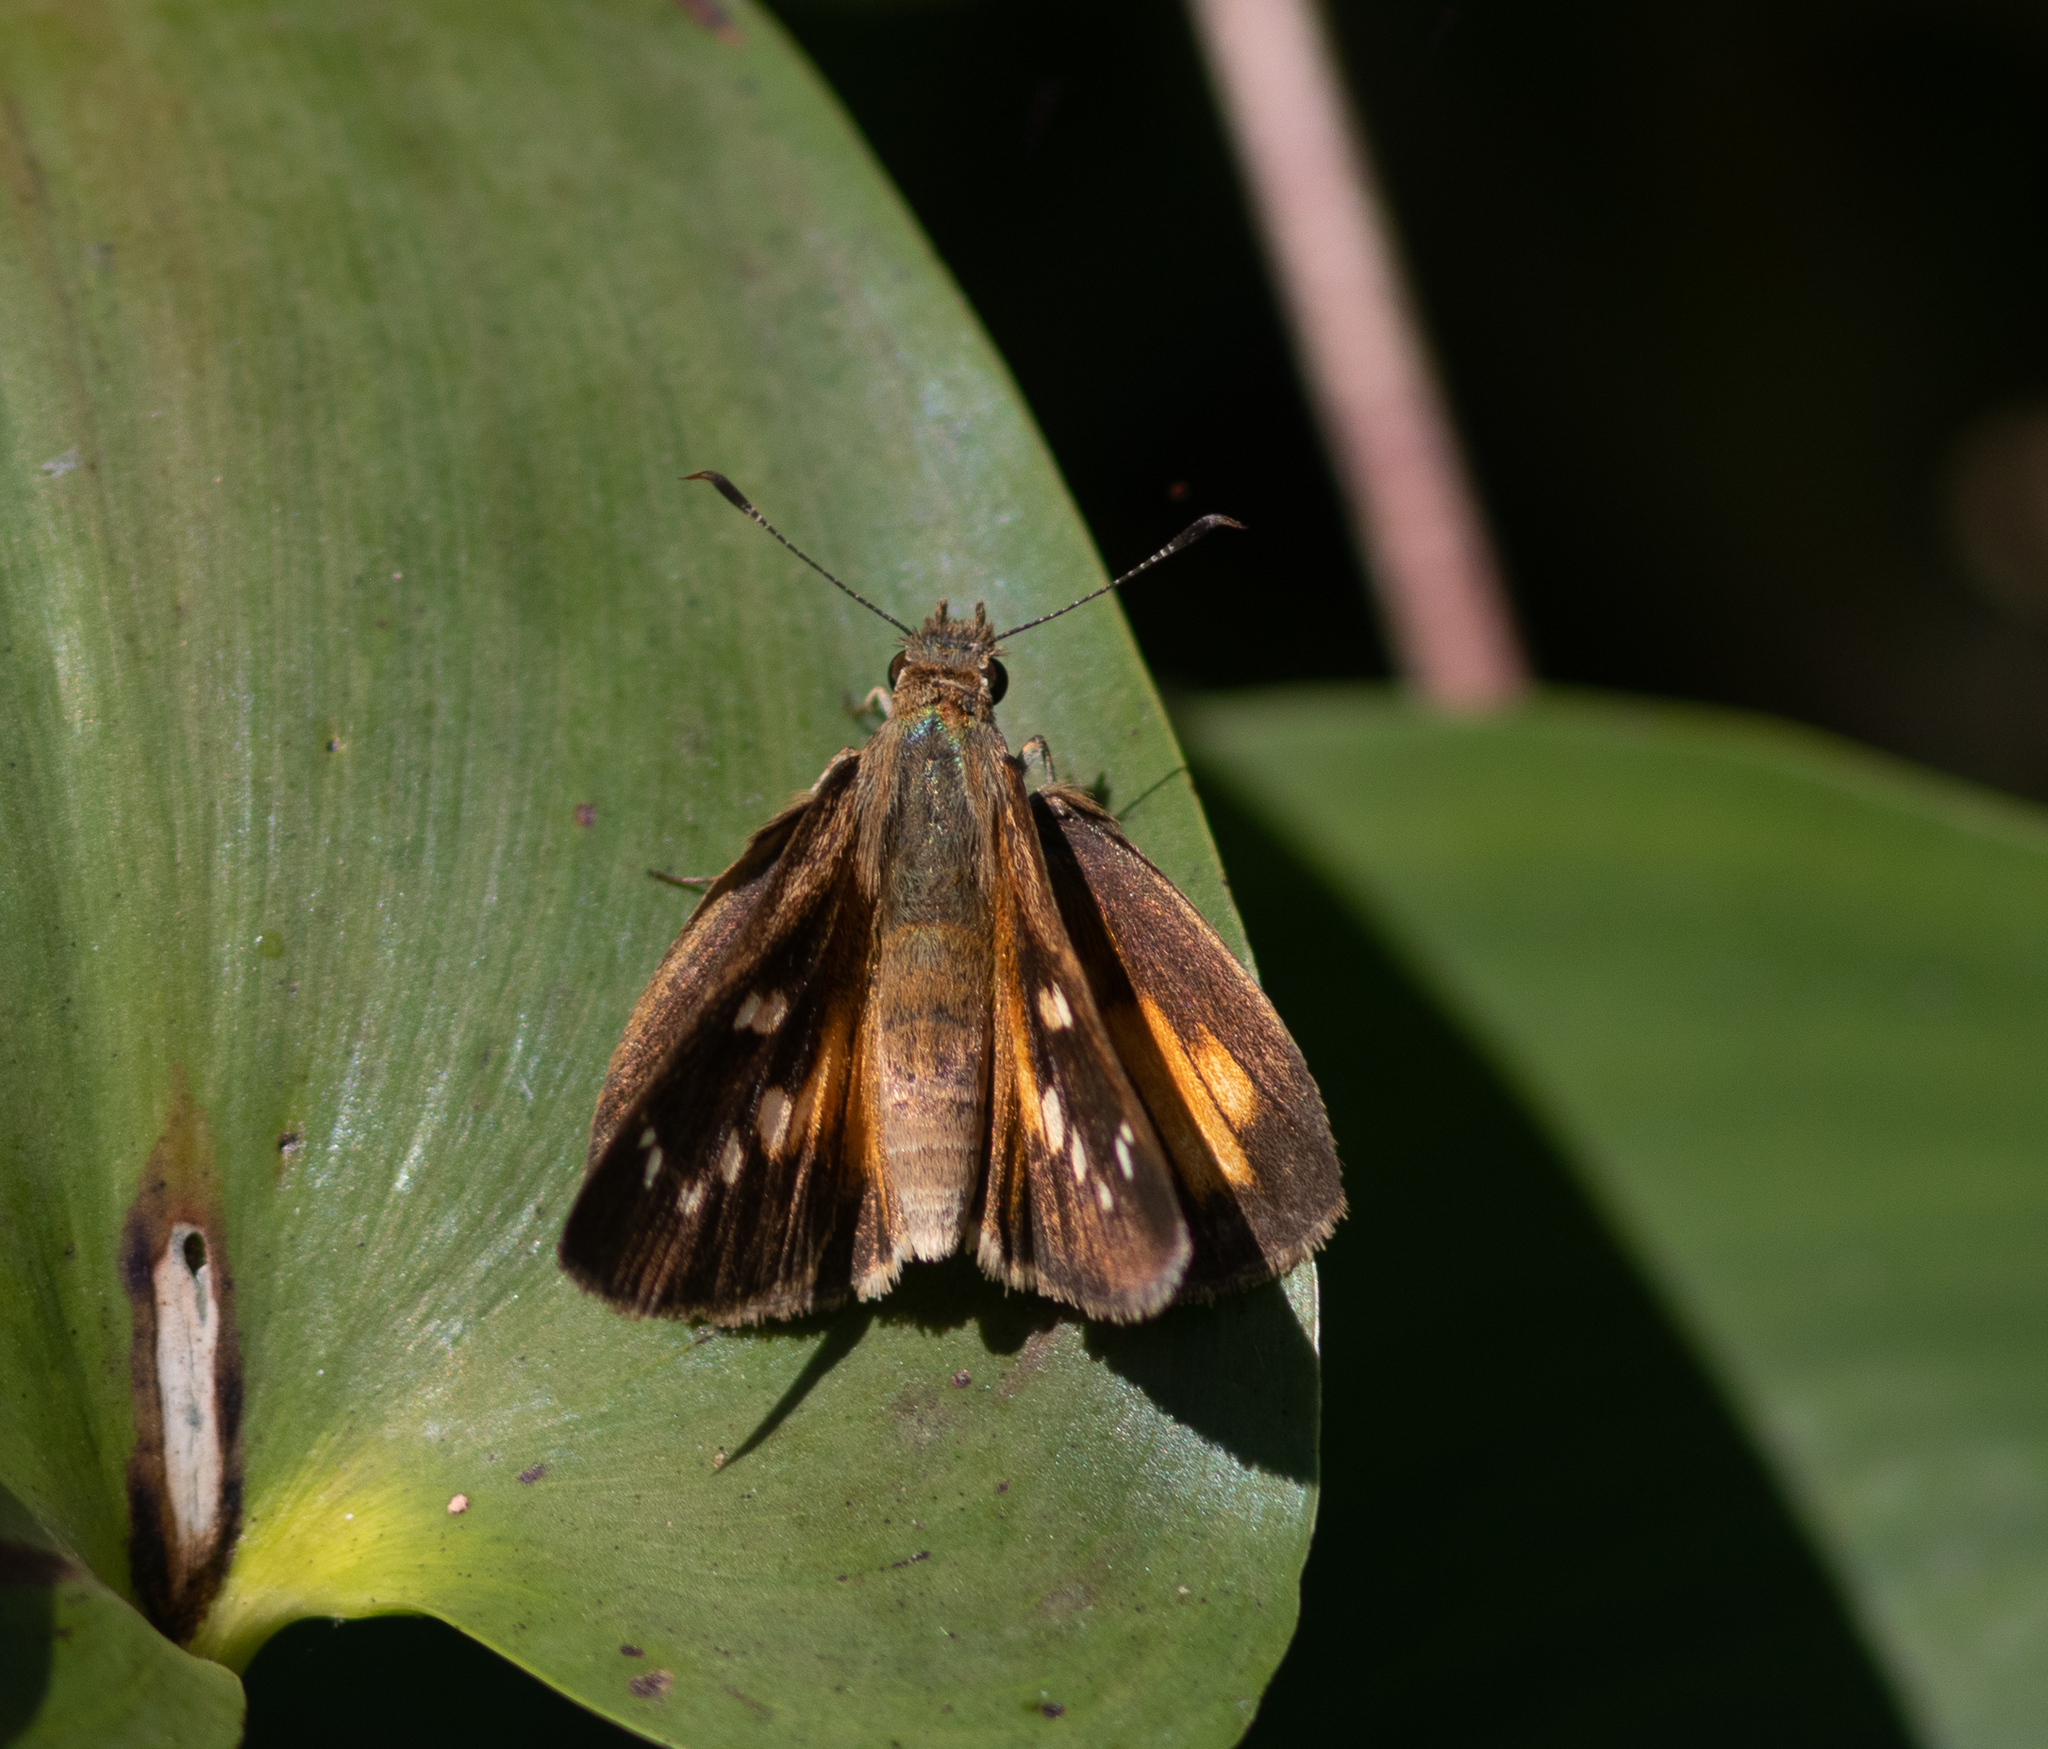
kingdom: Animalia
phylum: Arthropoda
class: Insecta
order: Lepidoptera
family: Hesperiidae
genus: Poanes
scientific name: Poanes viator
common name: Broad-winged skipper
